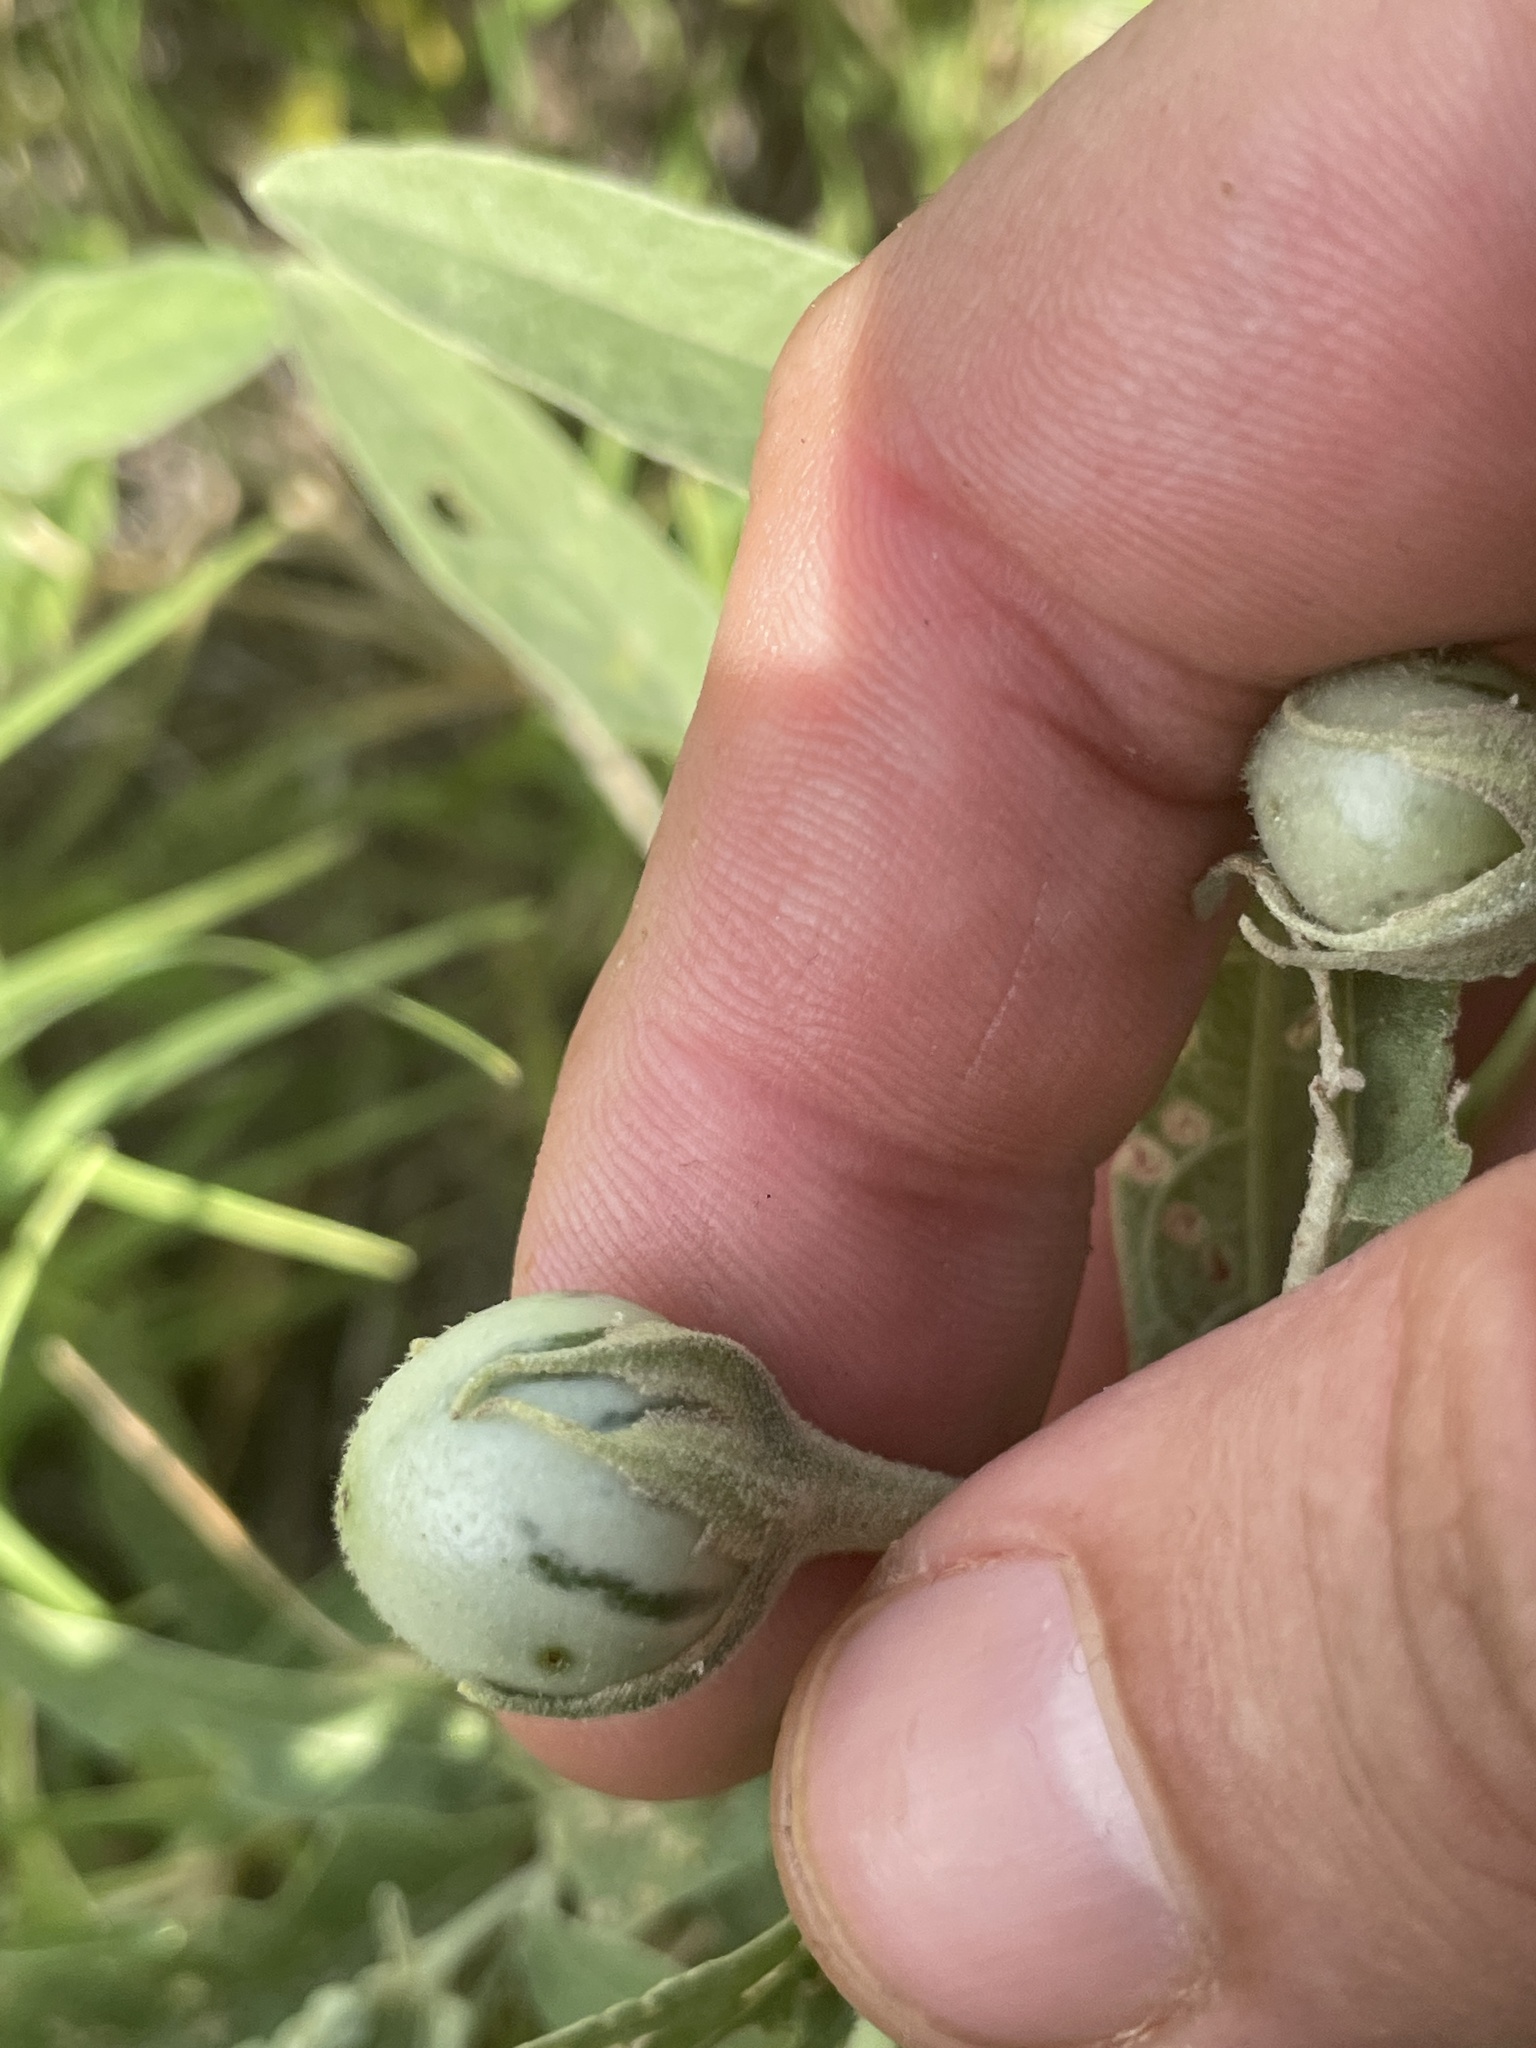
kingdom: Plantae
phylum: Tracheophyta
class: Magnoliopsida
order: Solanales
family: Solanaceae
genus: Solanum
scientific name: Solanum elaeagnifolium
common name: Silverleaf nightshade
